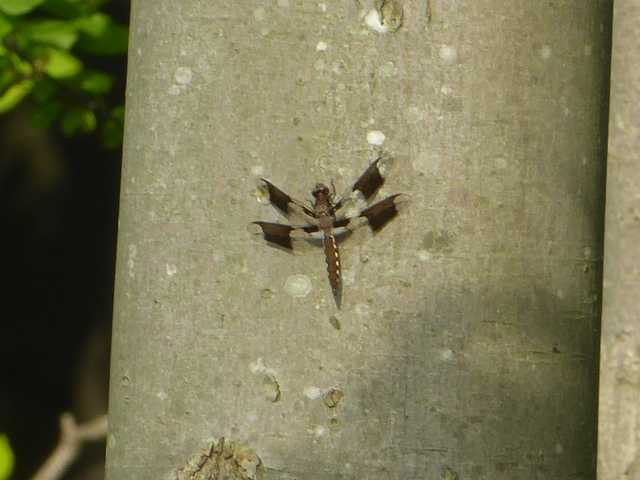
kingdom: Animalia
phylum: Arthropoda
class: Insecta
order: Odonata
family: Libellulidae
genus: Plathemis
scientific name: Plathemis lydia
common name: Common whitetail
